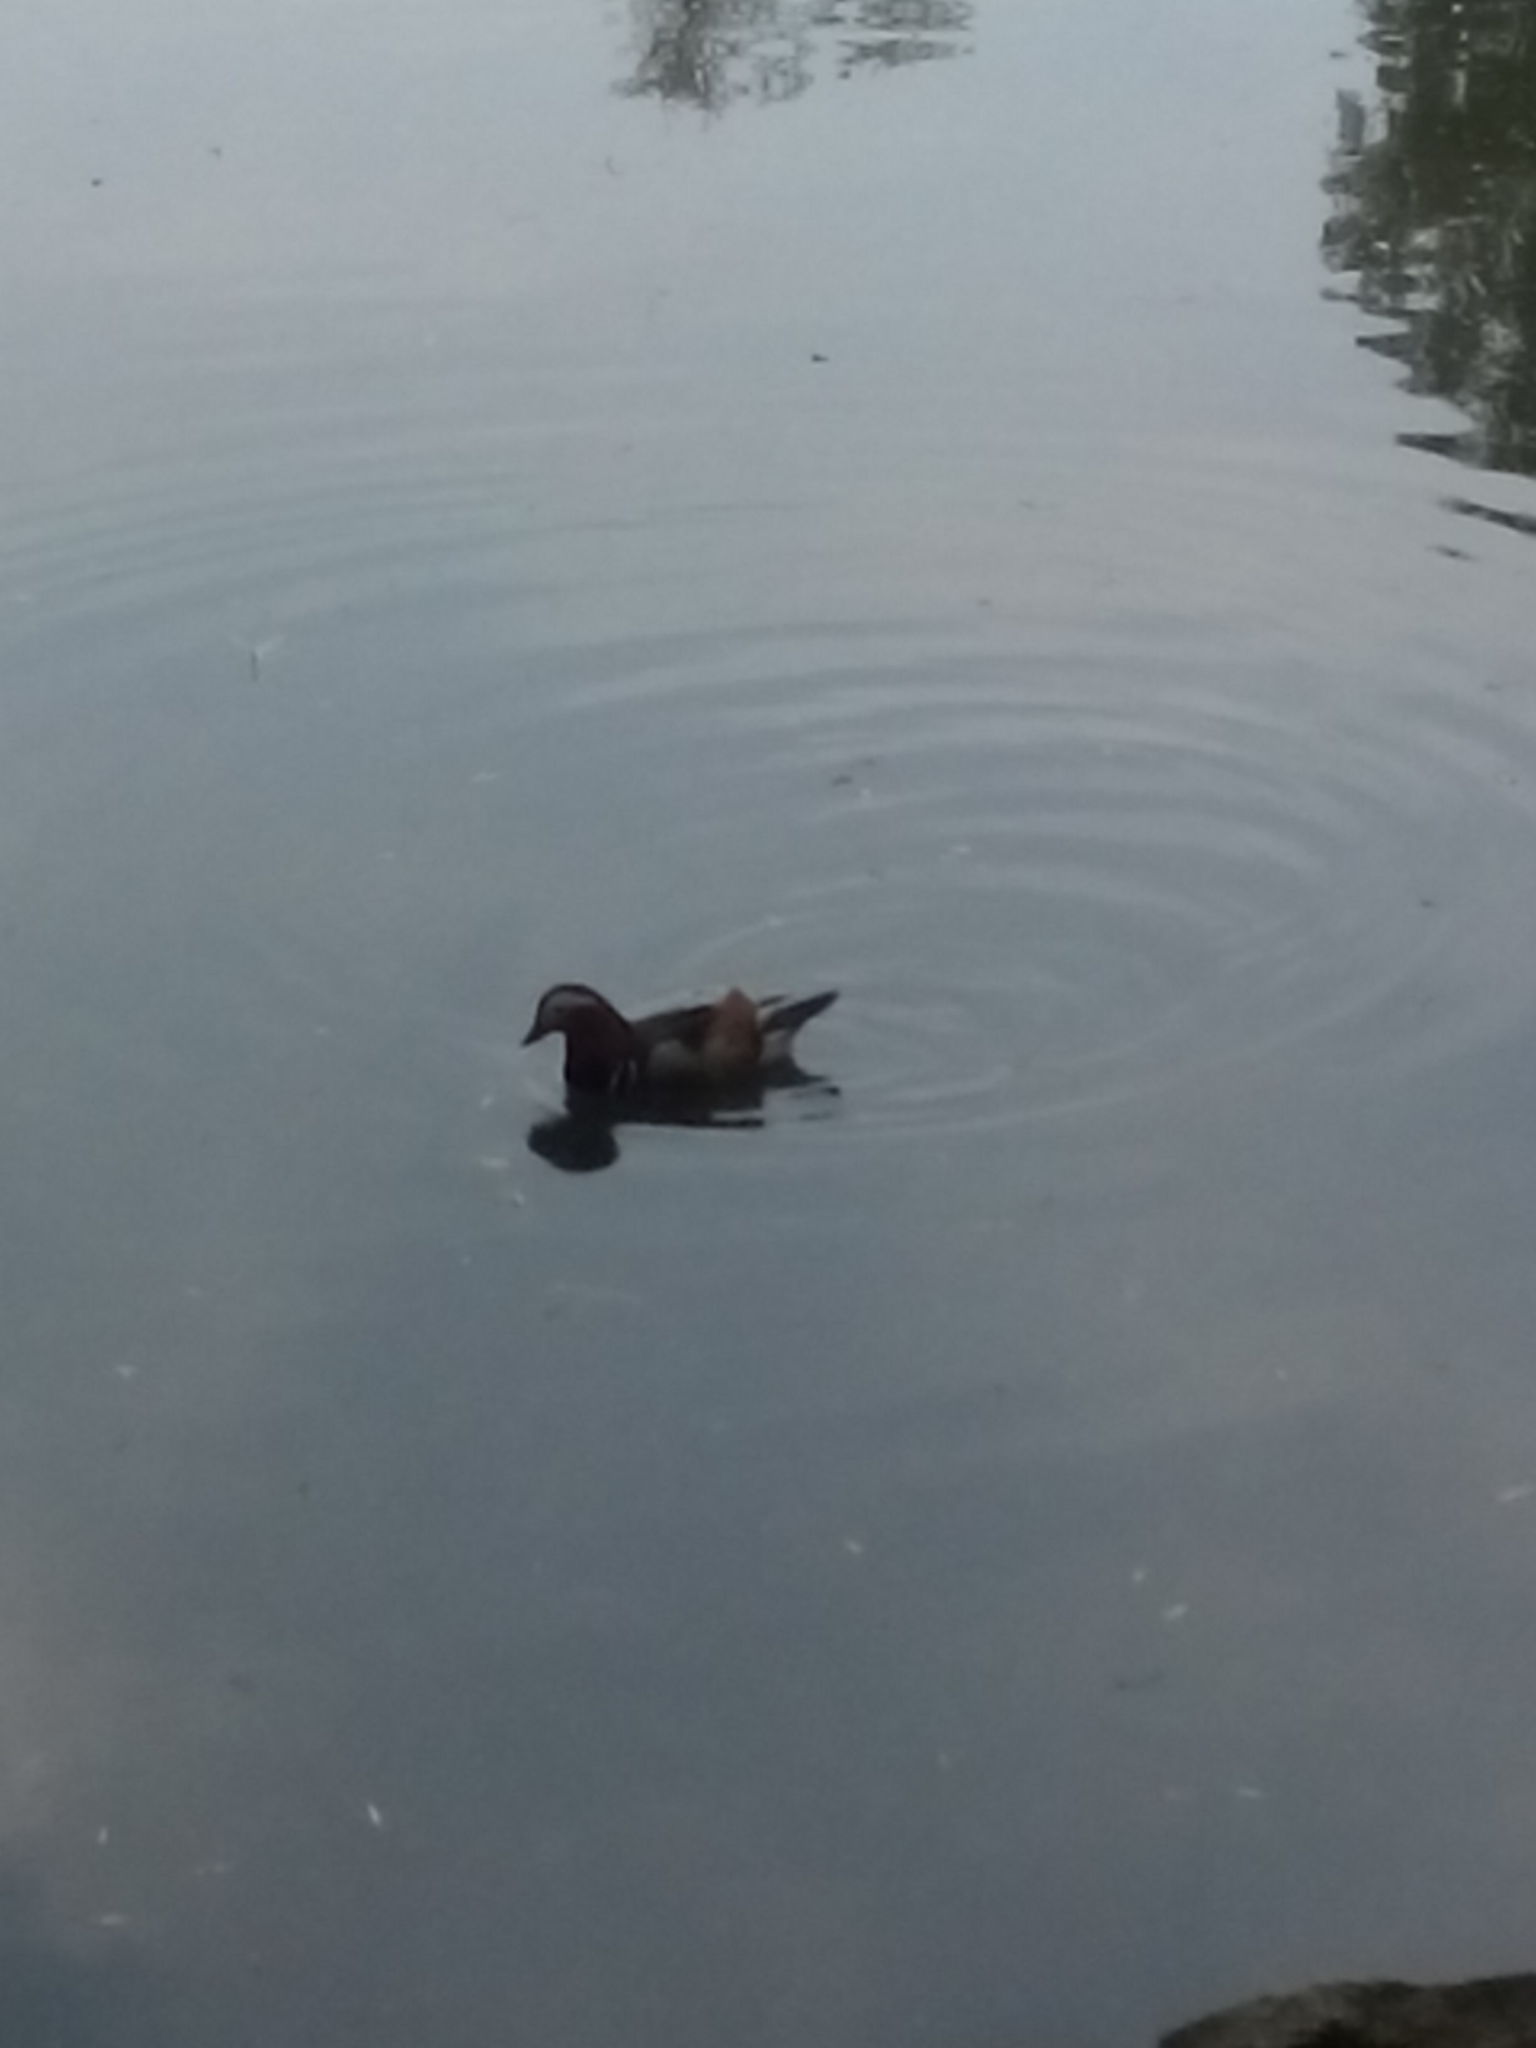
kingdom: Animalia
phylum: Chordata
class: Aves
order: Anseriformes
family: Anatidae
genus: Aix
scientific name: Aix galericulata
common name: Mandarin duck
